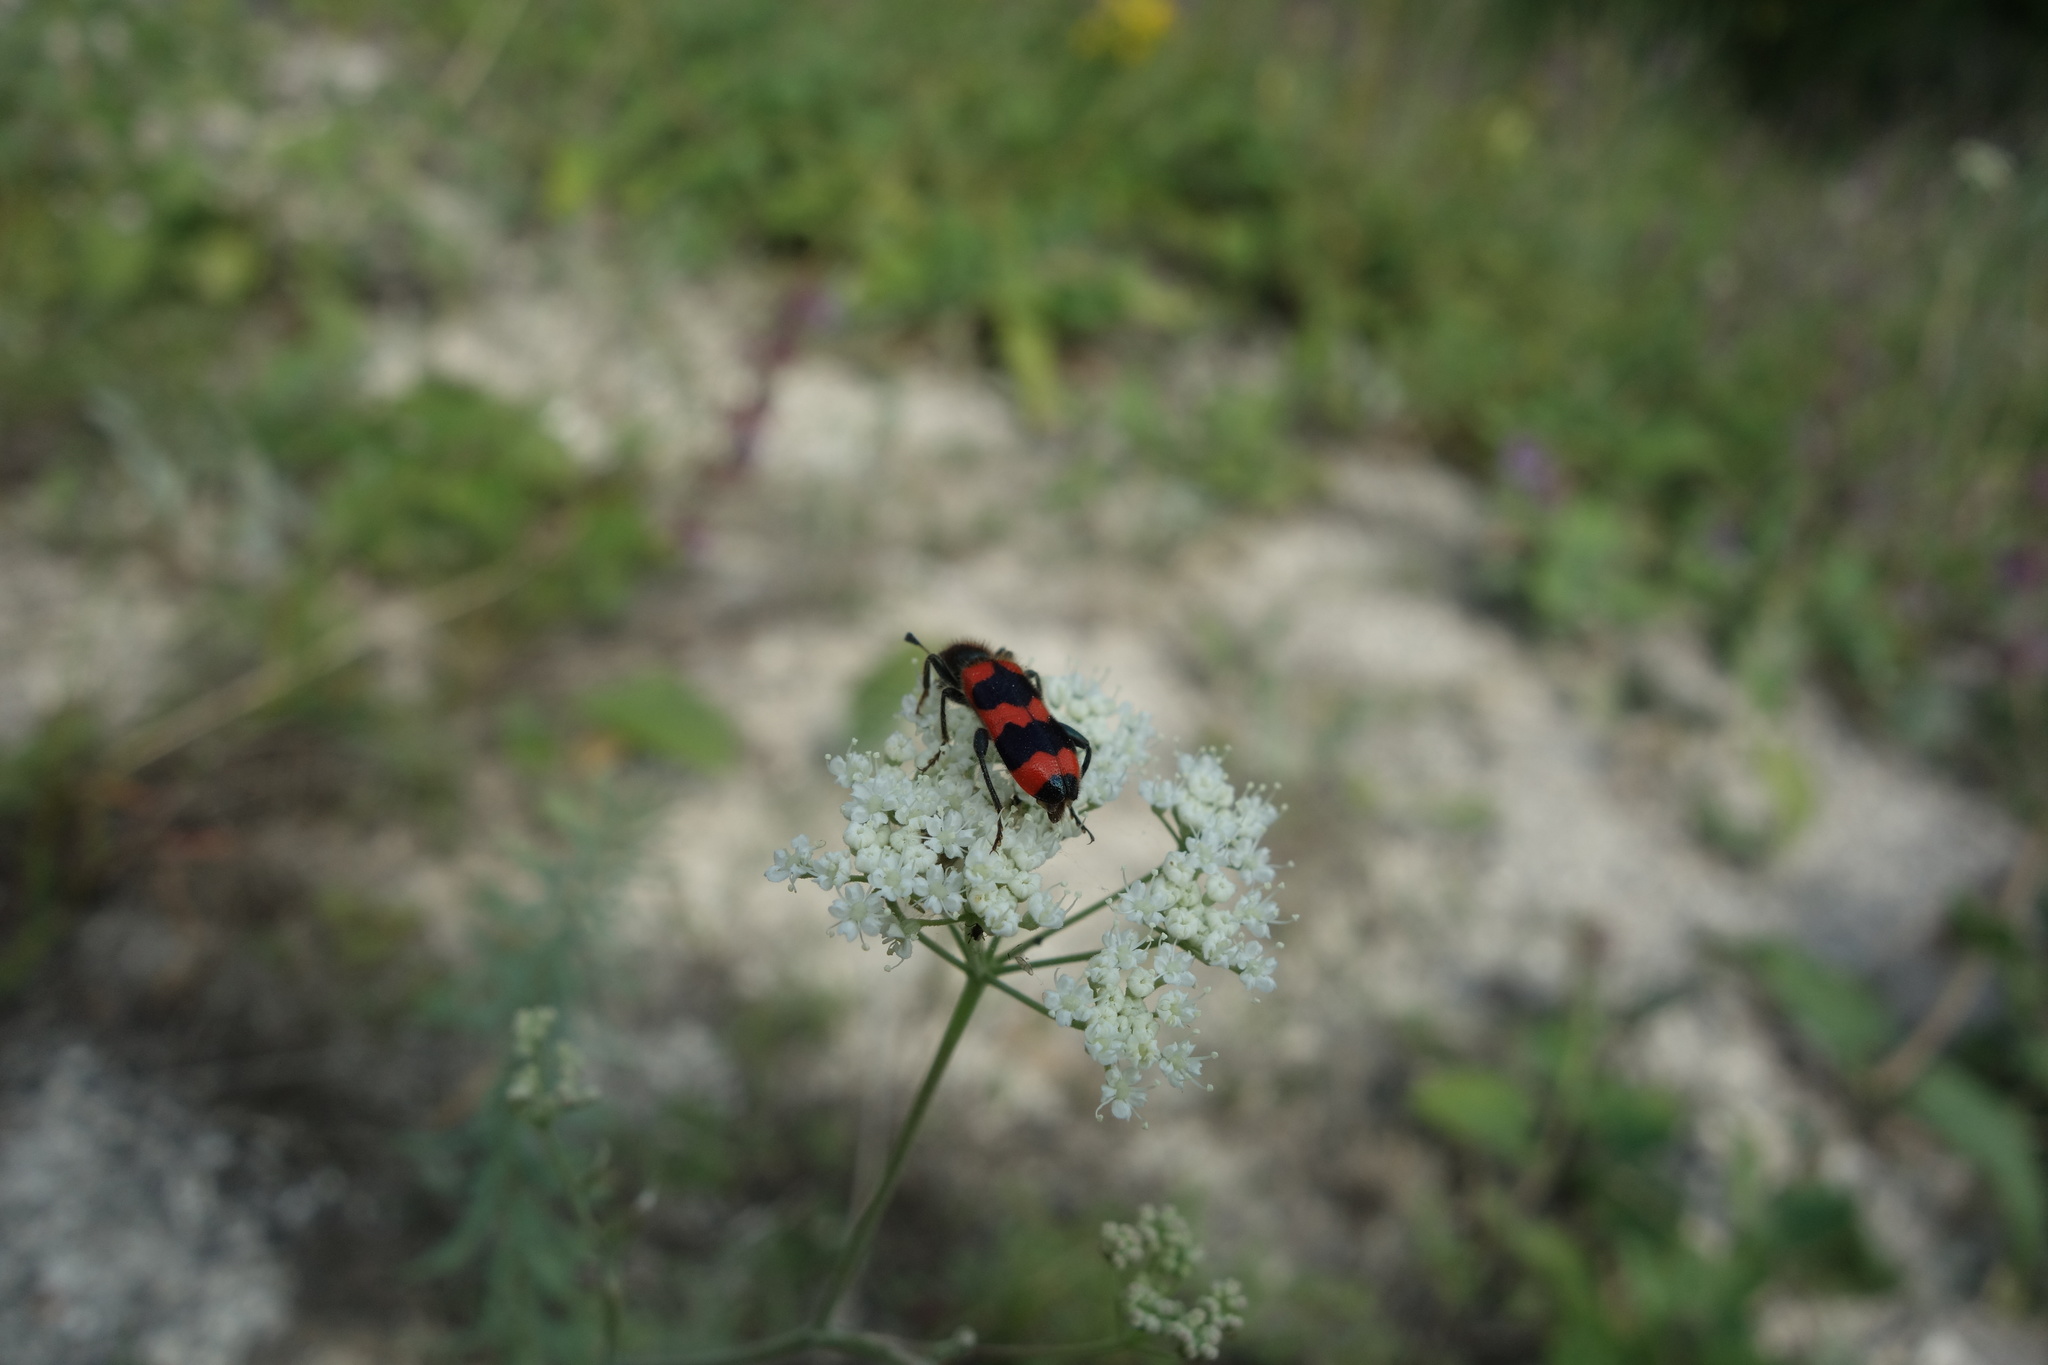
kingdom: Animalia
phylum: Arthropoda
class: Insecta
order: Coleoptera
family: Cleridae
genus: Trichodes
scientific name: Trichodes apiarius
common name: Bee-eating beetle
